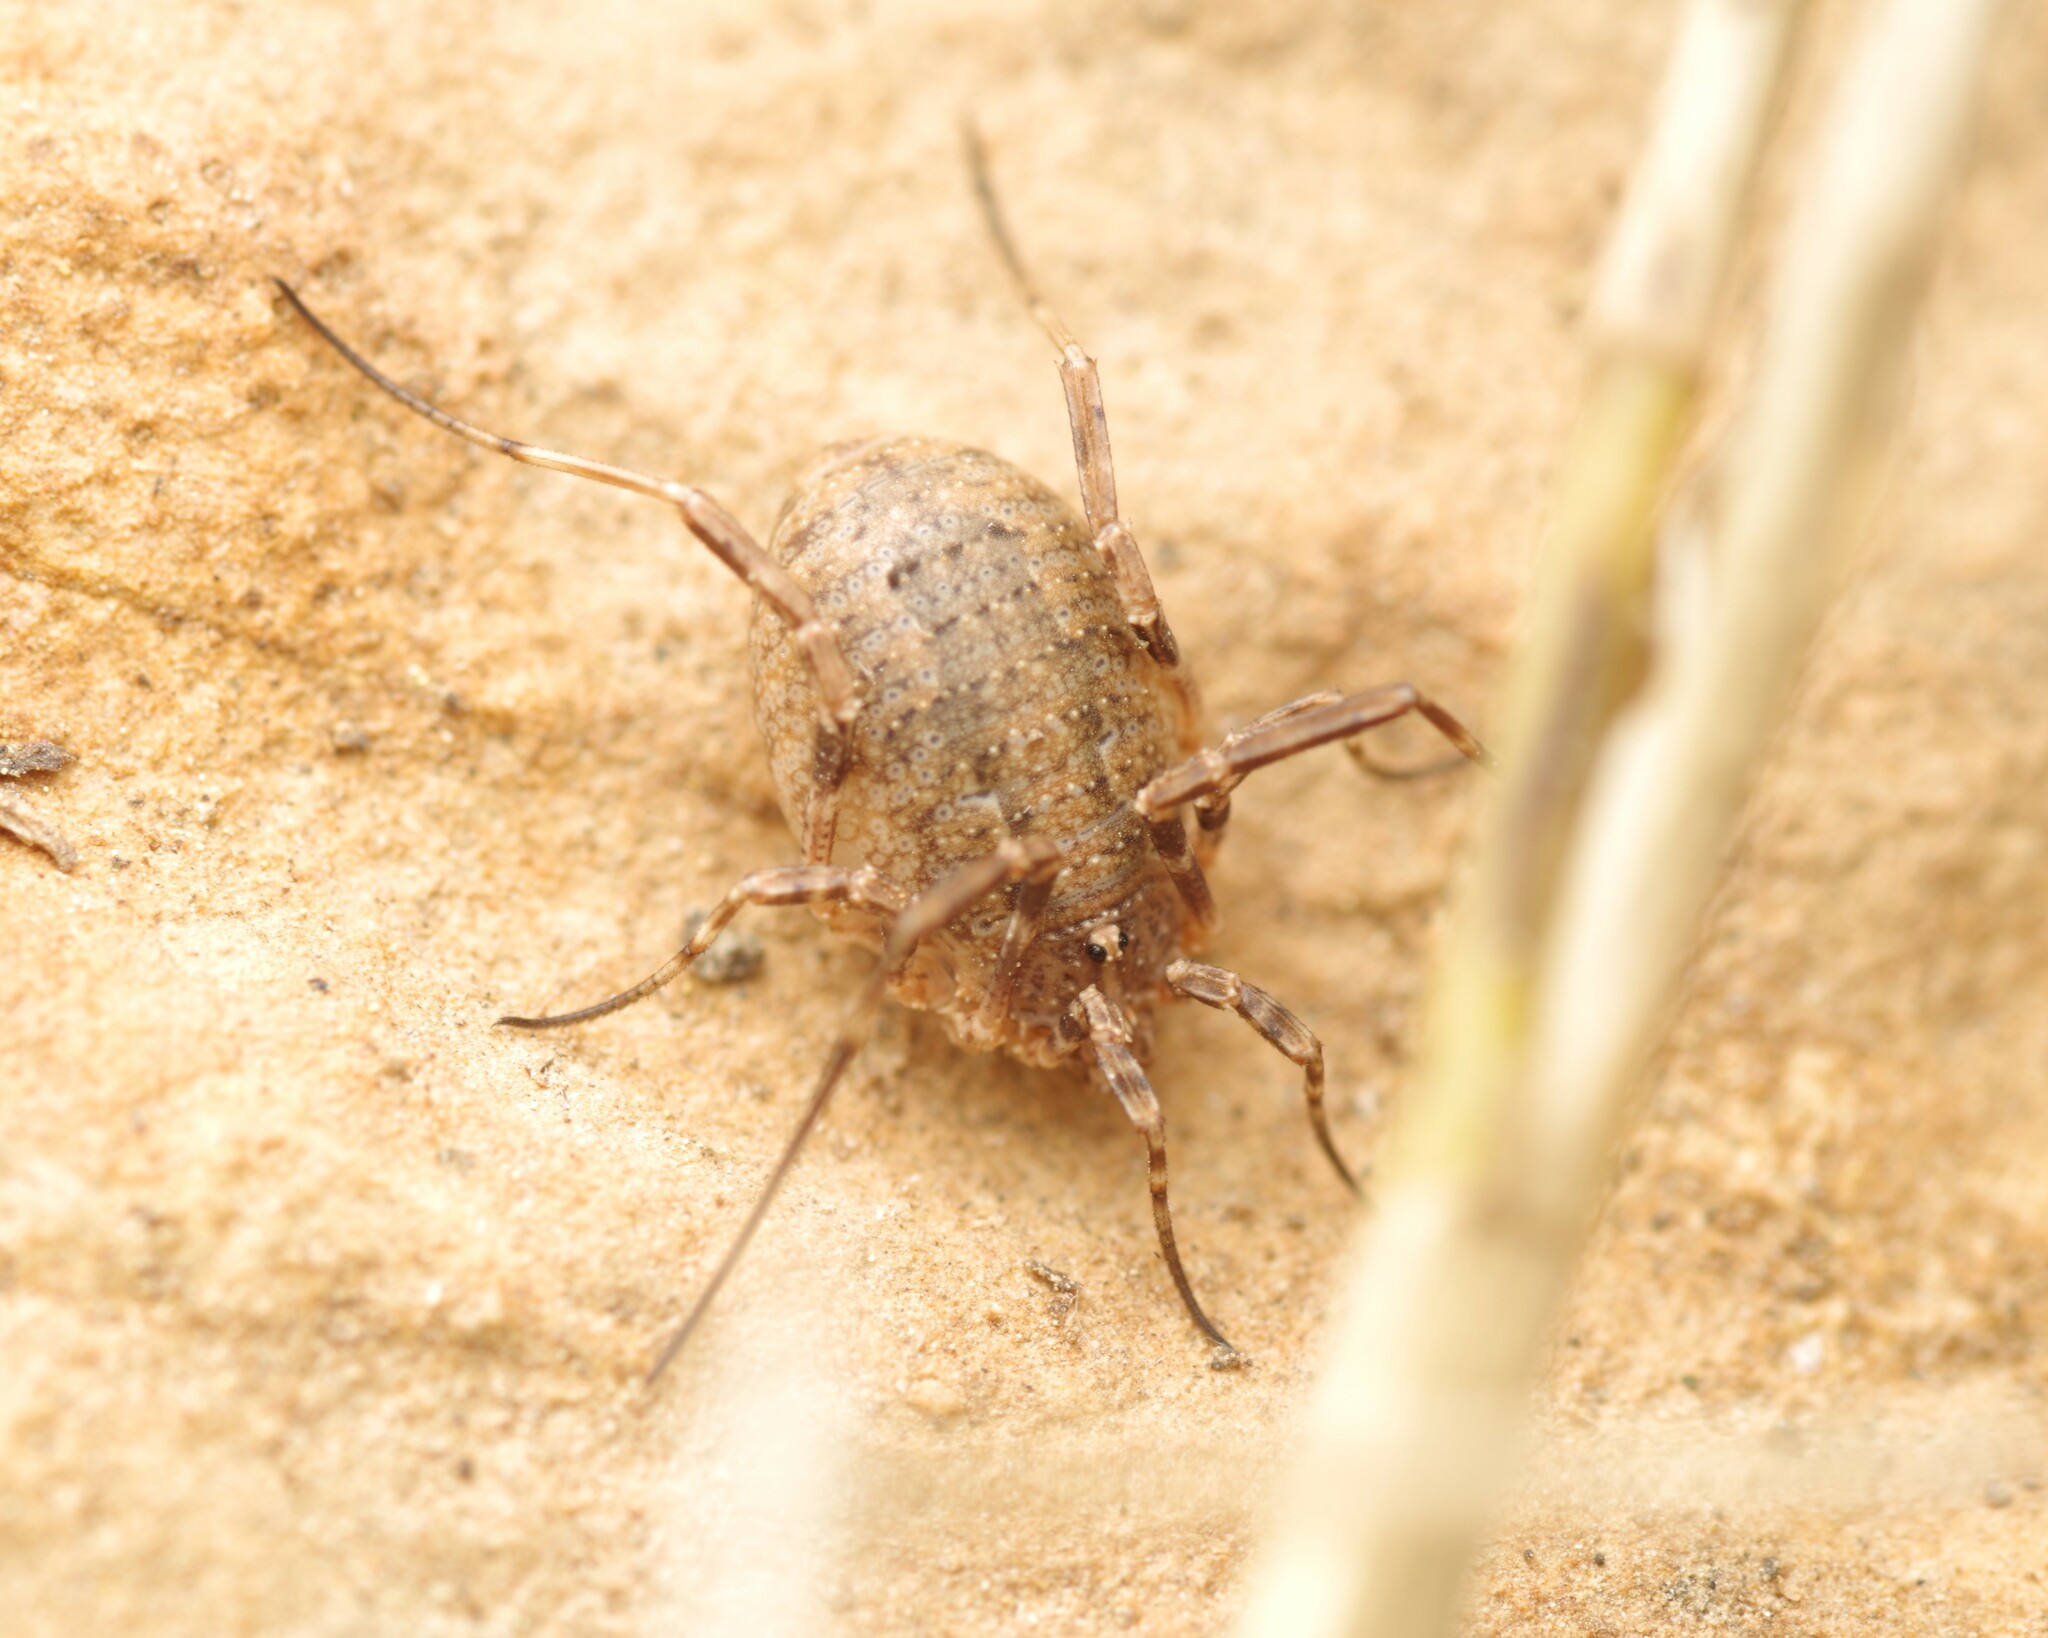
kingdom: Animalia
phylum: Arthropoda
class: Arachnida
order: Opiliones
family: Phalangiidae
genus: Odiellus
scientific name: Odiellus spinosus
